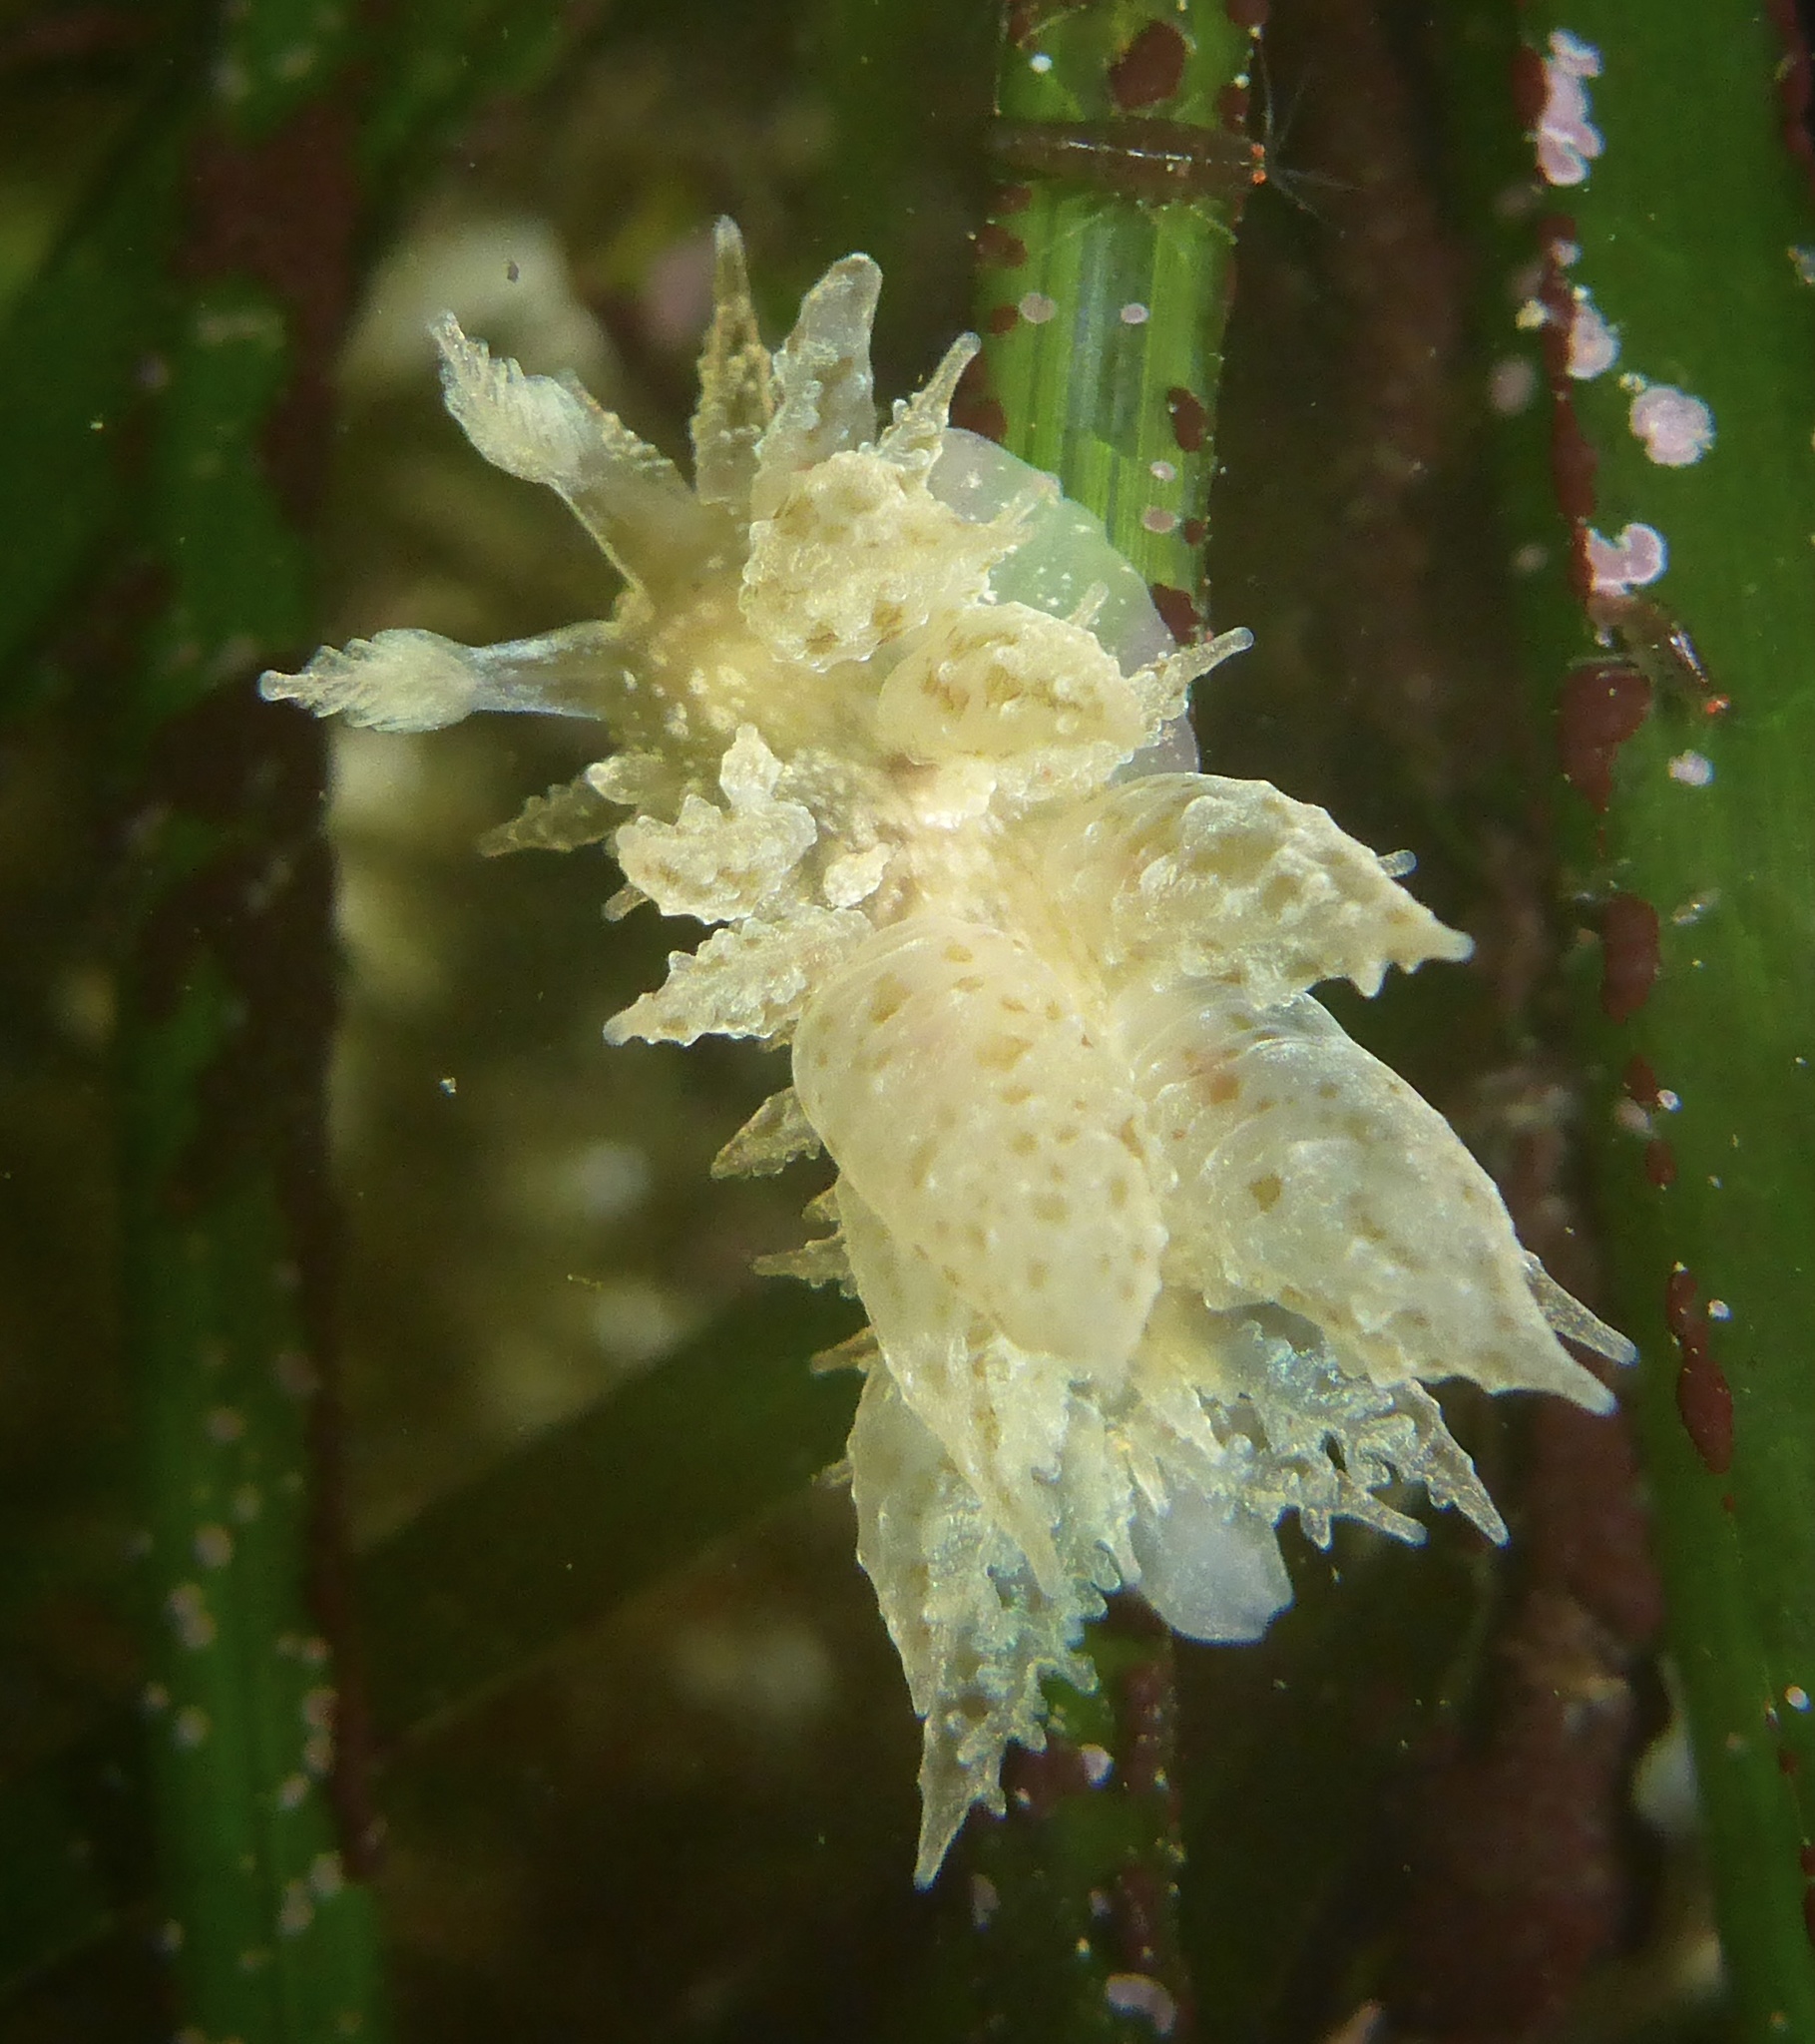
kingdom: Animalia
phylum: Mollusca
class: Gastropoda
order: Nudibranchia
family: Dironidae
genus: Dirona
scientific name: Dirona picta
